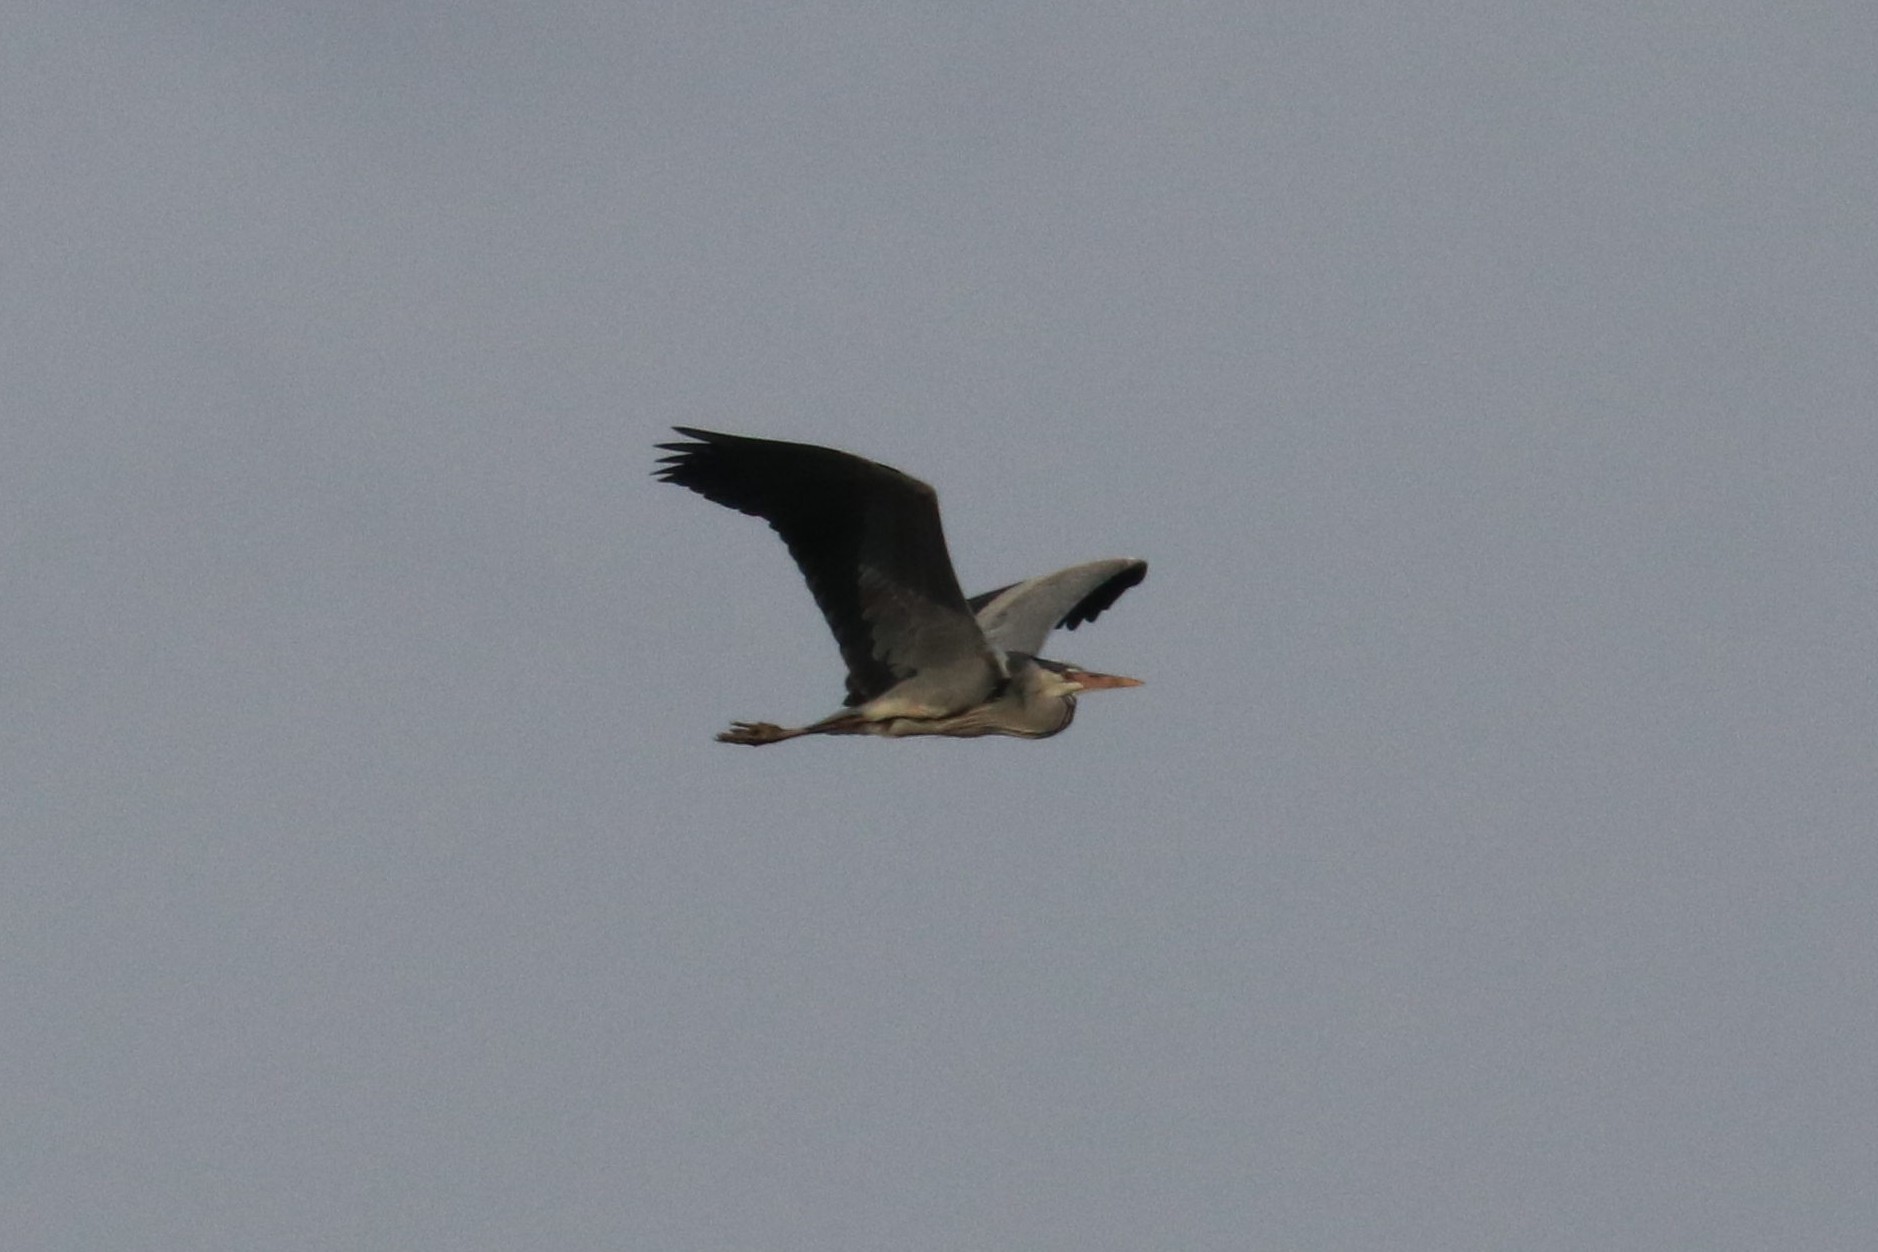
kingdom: Animalia
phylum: Chordata
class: Aves
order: Pelecaniformes
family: Ardeidae
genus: Ardea
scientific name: Ardea cinerea
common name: Grey heron
